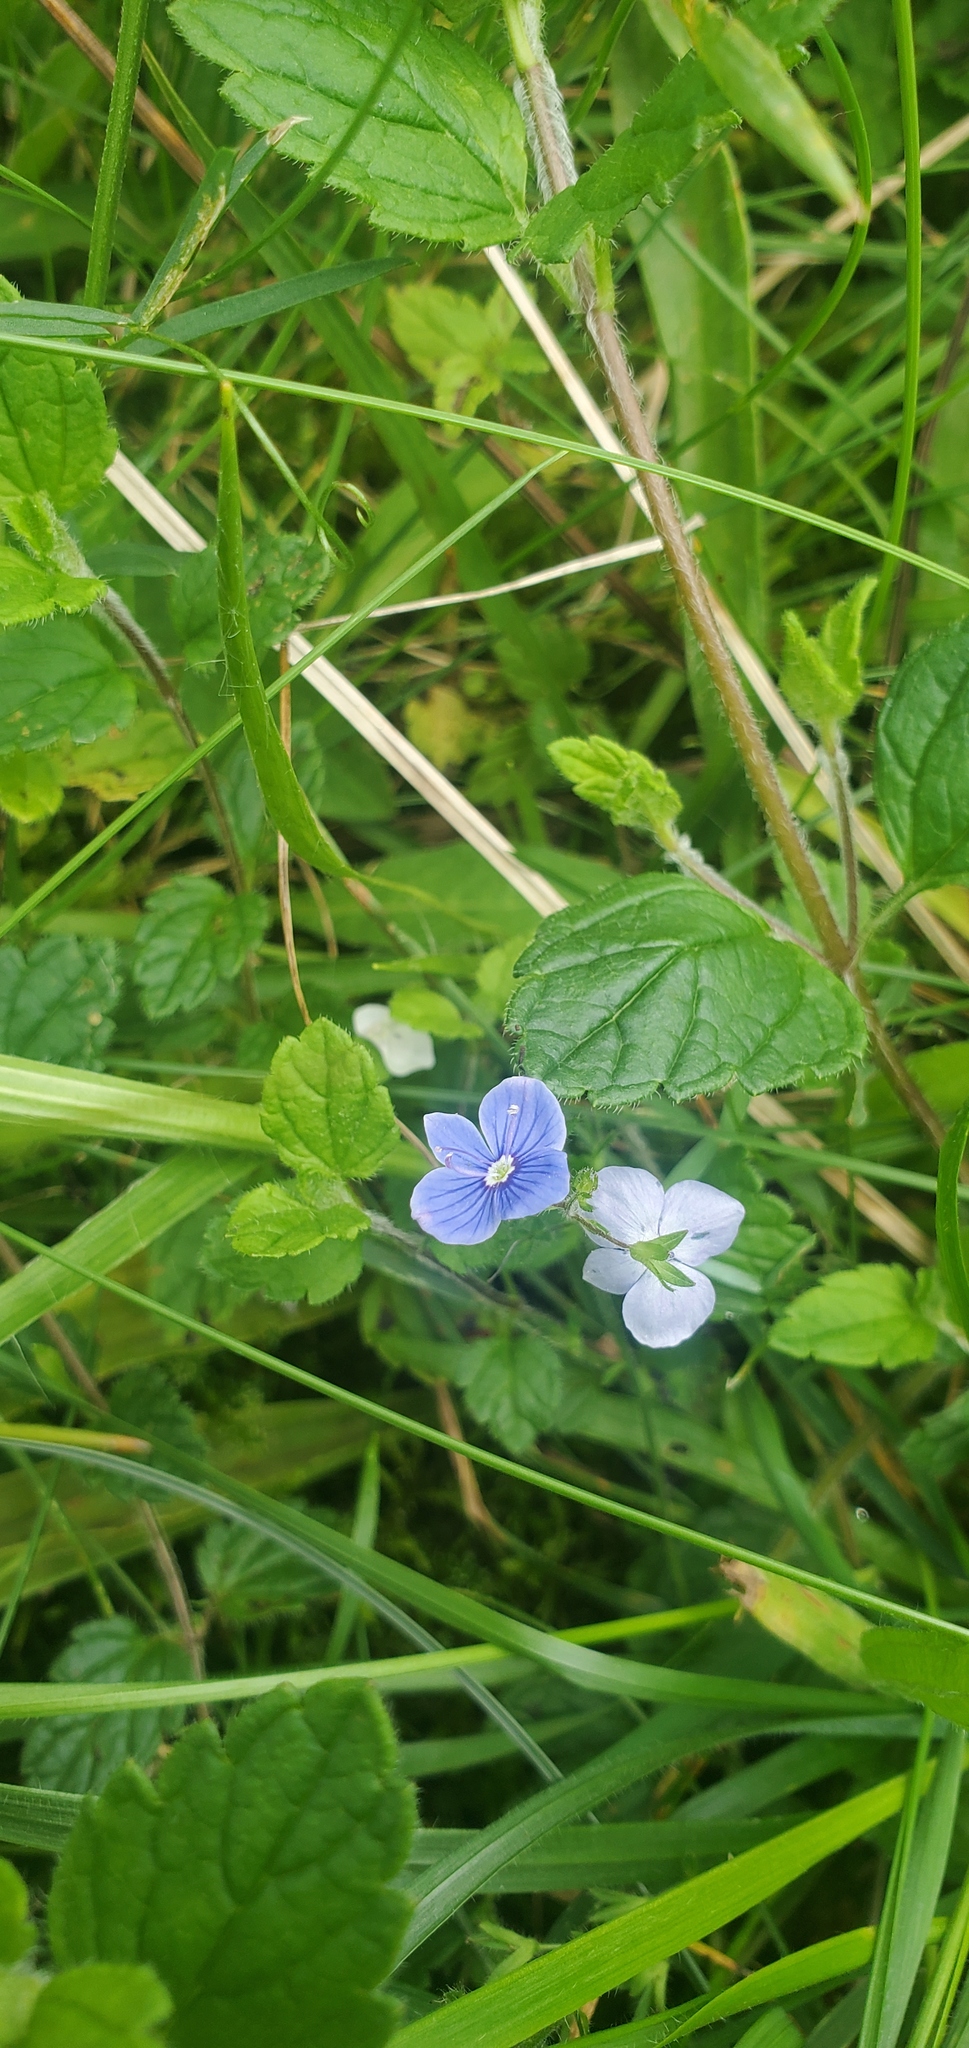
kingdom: Plantae
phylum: Tracheophyta
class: Magnoliopsida
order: Lamiales
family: Plantaginaceae
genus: Veronica
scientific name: Veronica chamaedrys
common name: Germander speedwell
